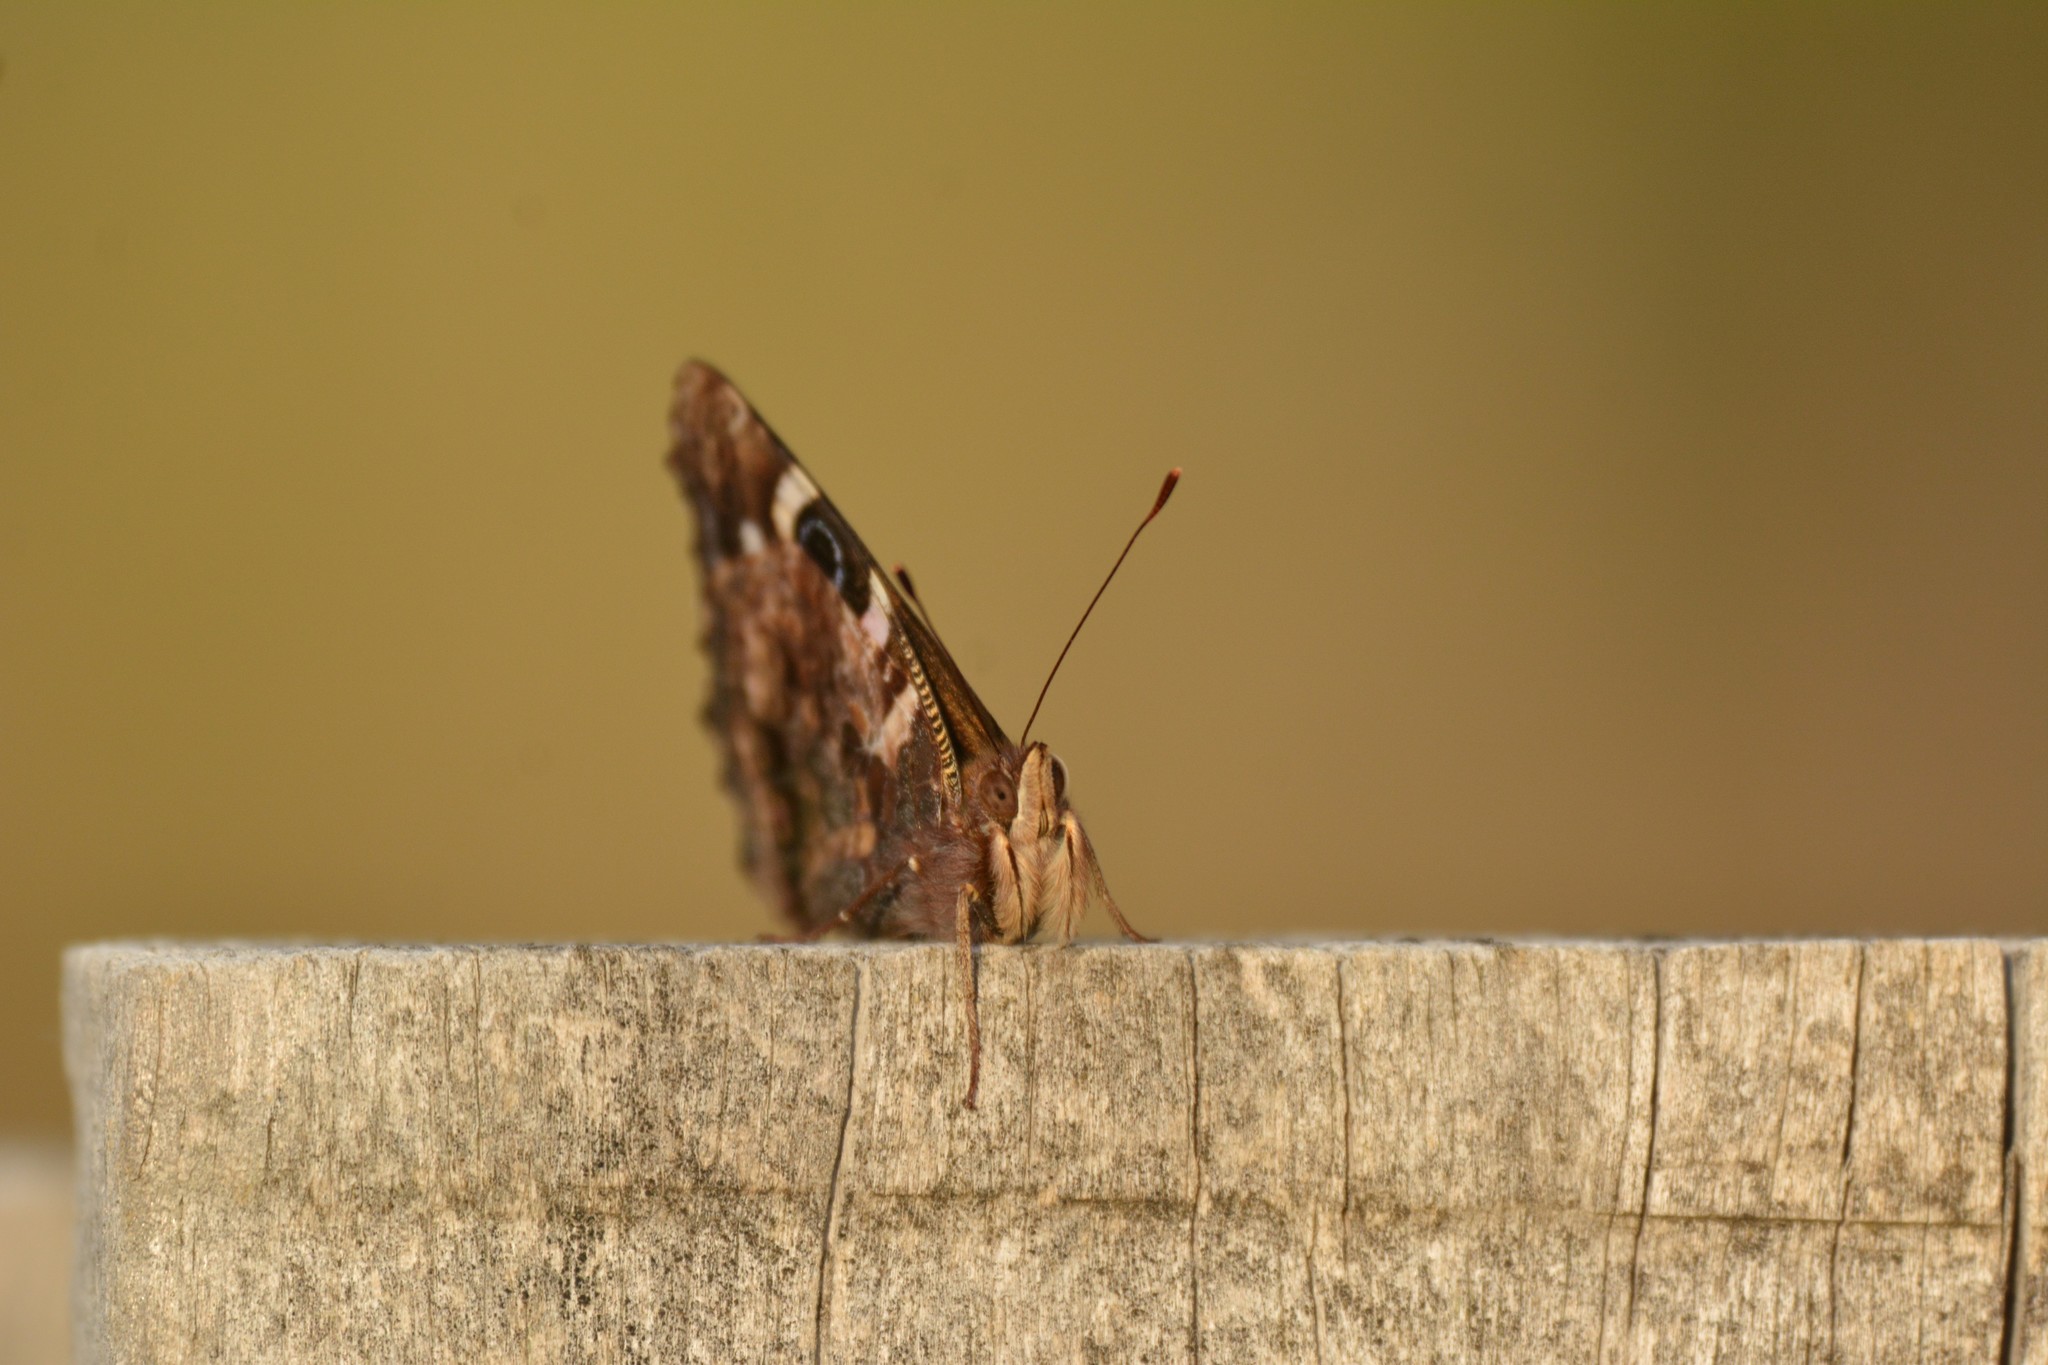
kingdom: Animalia
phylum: Arthropoda
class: Insecta
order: Lepidoptera
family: Nymphalidae
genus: Vanessa
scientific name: Vanessa gonerilla
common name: New zealand red admiral
